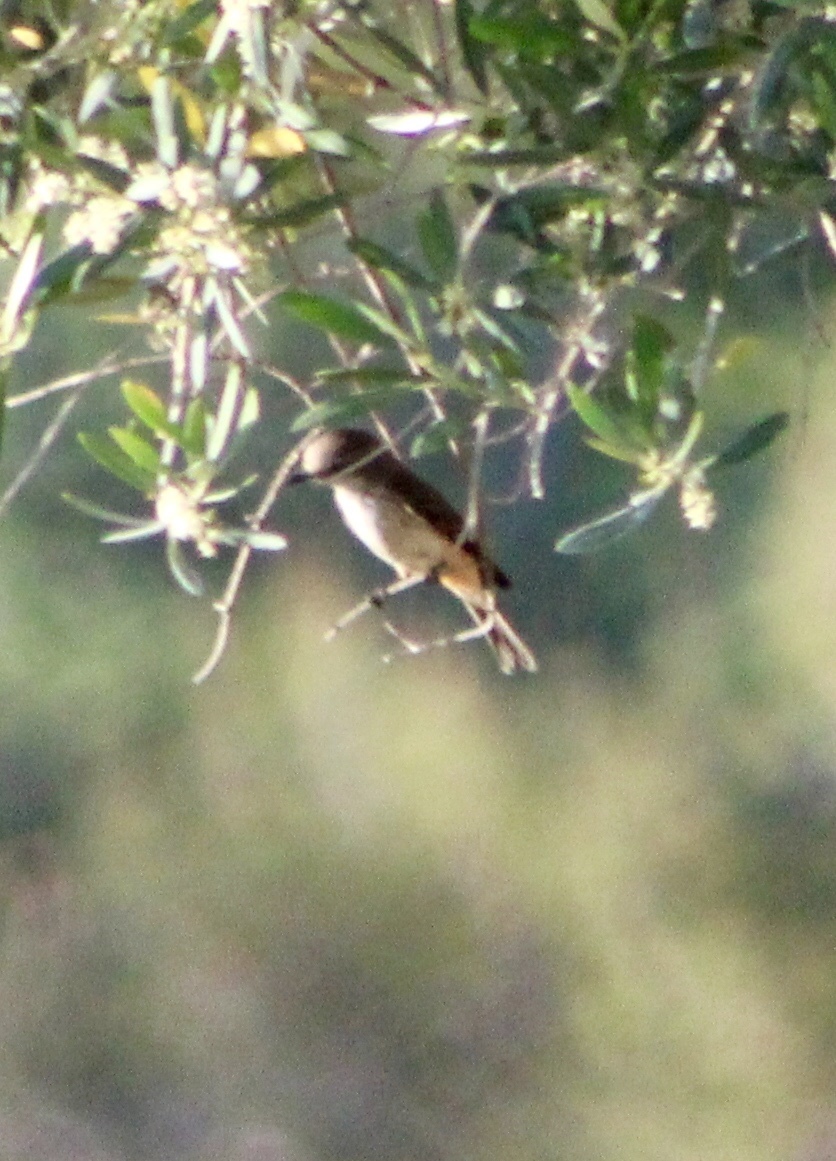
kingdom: Animalia
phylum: Chordata
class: Aves
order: Passeriformes
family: Tyrannidae
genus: Pyrocephalus
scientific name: Pyrocephalus rubinus
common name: Vermilion flycatcher
